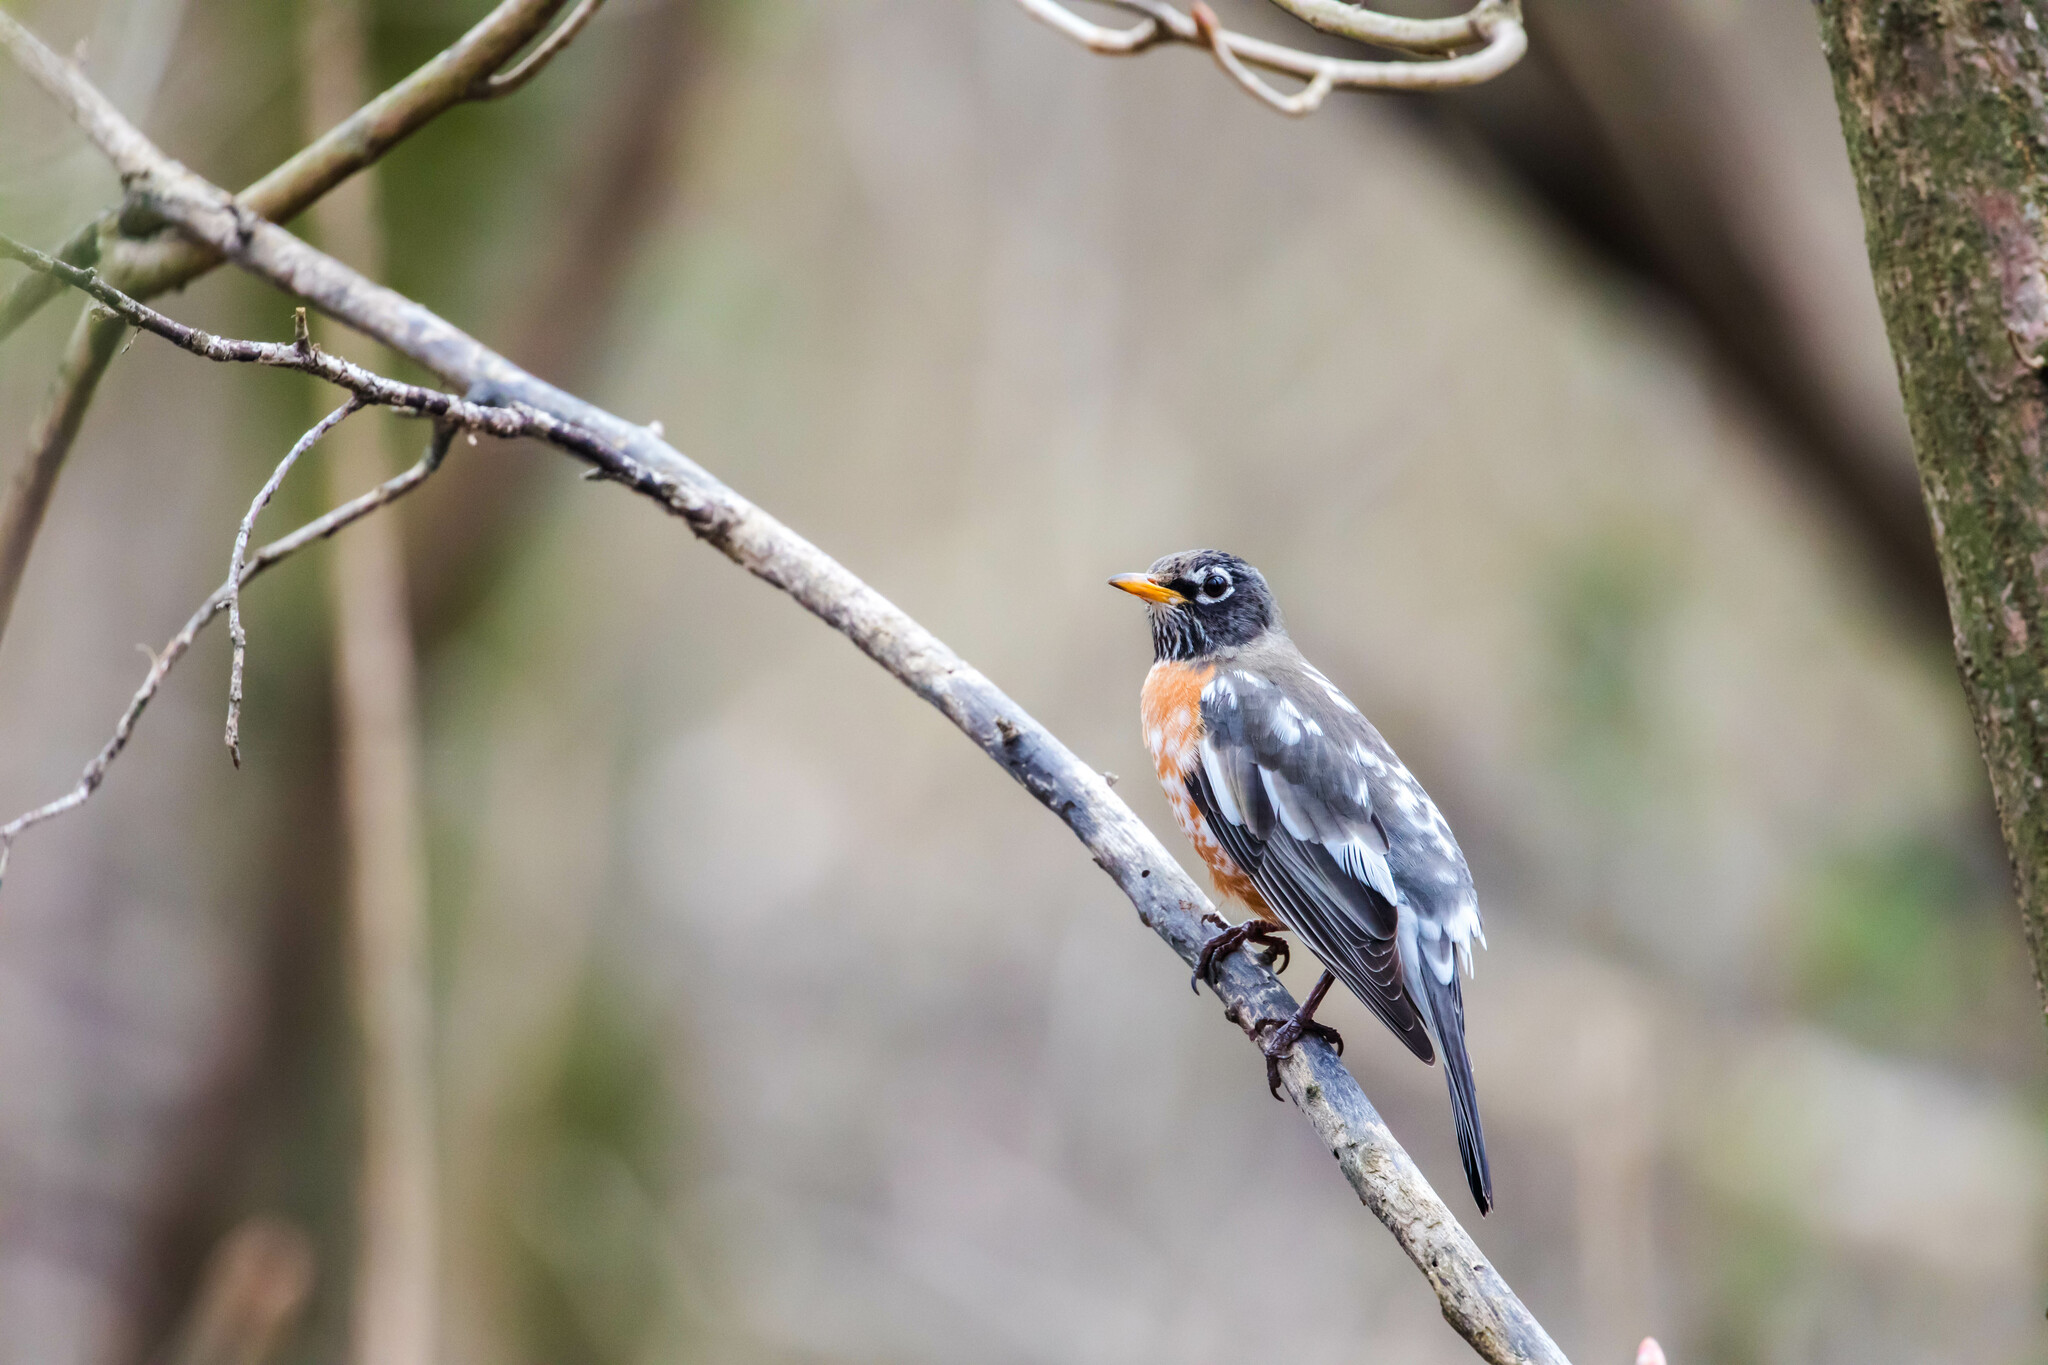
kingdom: Animalia
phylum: Chordata
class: Aves
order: Passeriformes
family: Turdidae
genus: Turdus
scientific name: Turdus migratorius
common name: American robin
